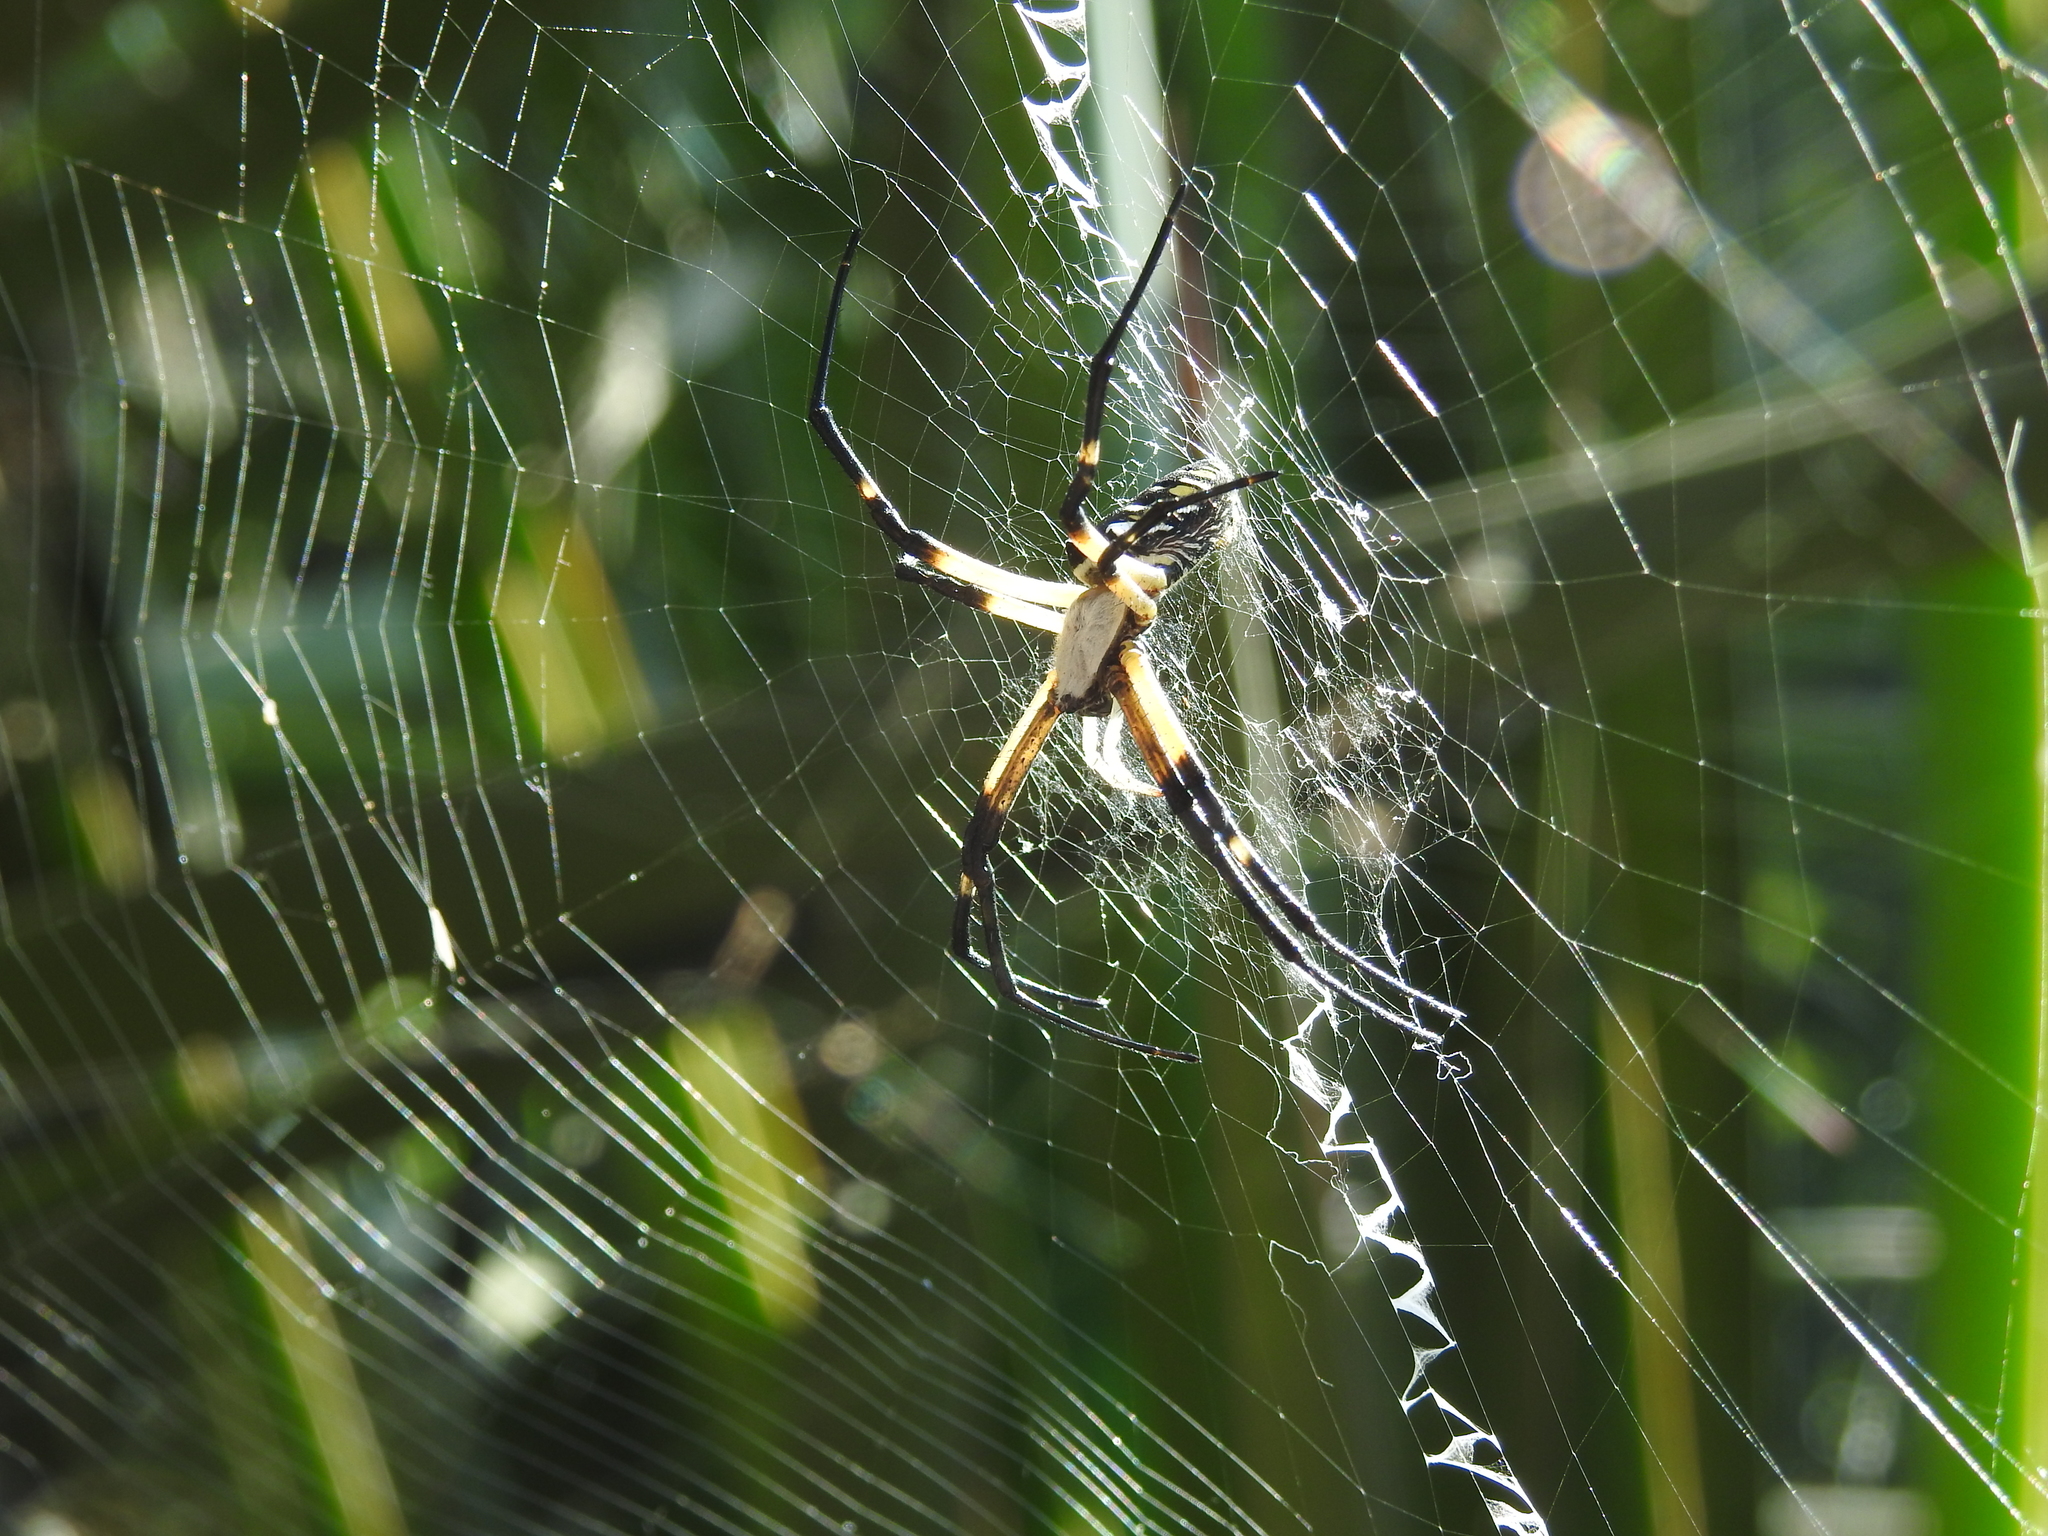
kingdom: Animalia
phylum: Arthropoda
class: Arachnida
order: Araneae
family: Araneidae
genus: Argiope
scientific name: Argiope aurantia
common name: Orb weavers
